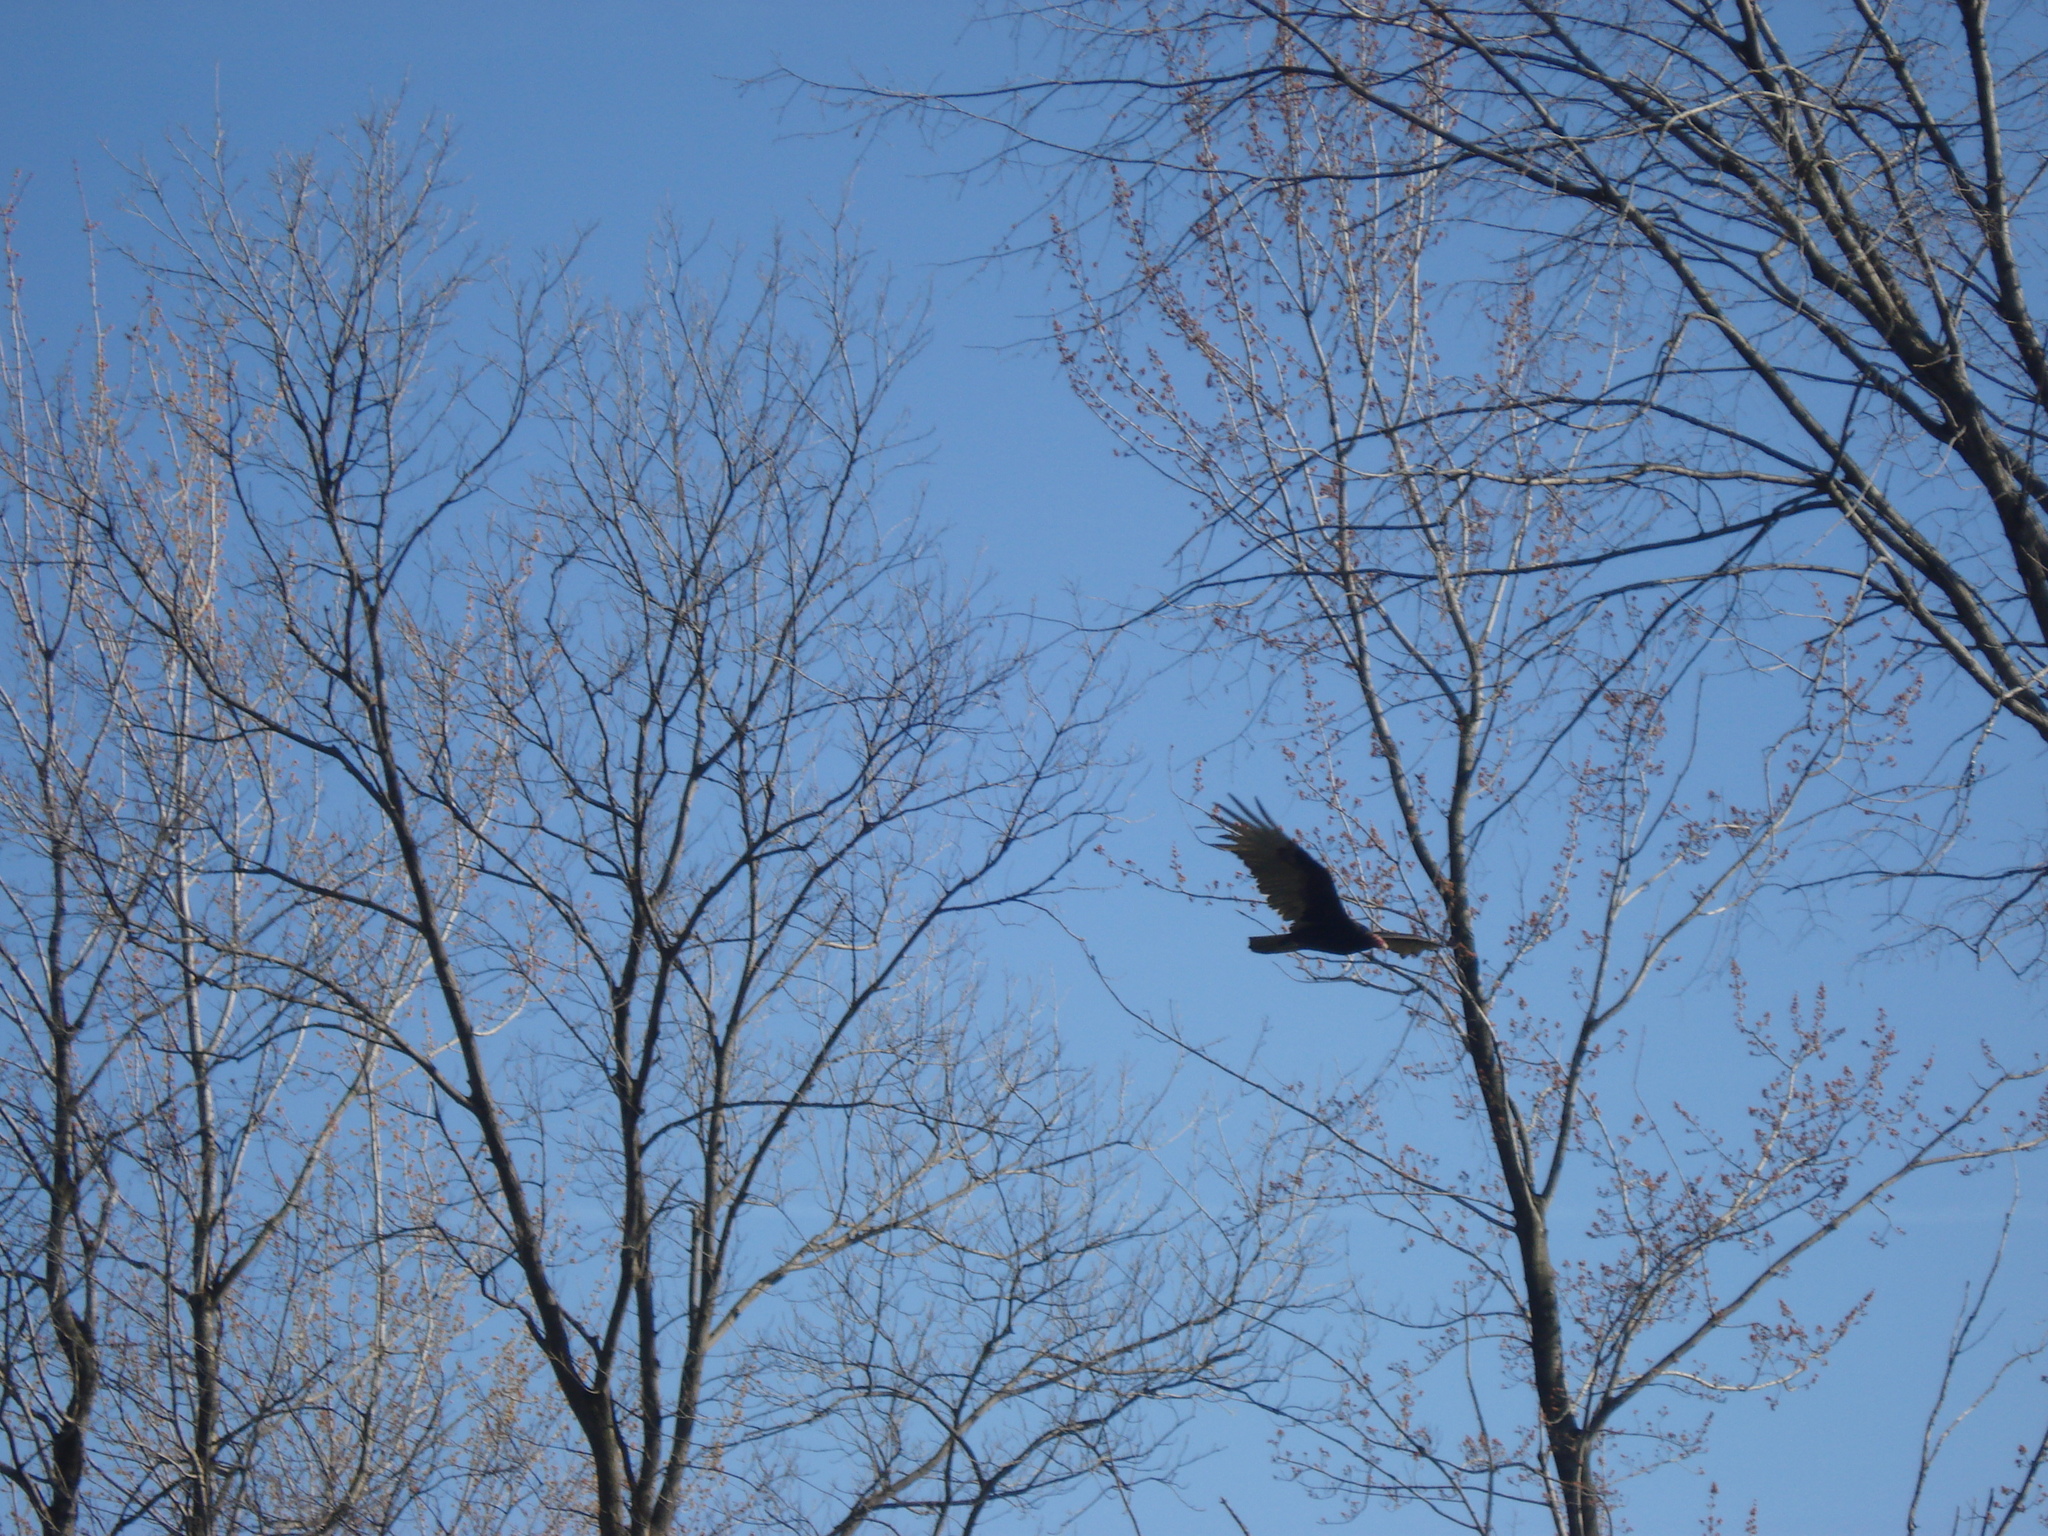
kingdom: Animalia
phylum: Chordata
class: Aves
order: Accipitriformes
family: Cathartidae
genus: Cathartes
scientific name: Cathartes aura
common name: Turkey vulture
